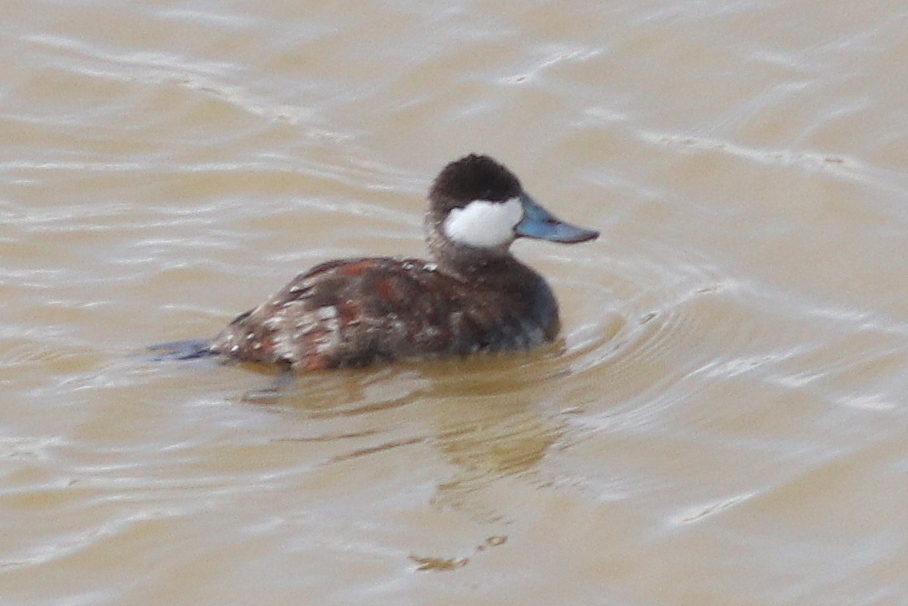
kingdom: Animalia
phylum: Chordata
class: Aves
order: Anseriformes
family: Anatidae
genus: Oxyura
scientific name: Oxyura jamaicensis
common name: Ruddy duck
